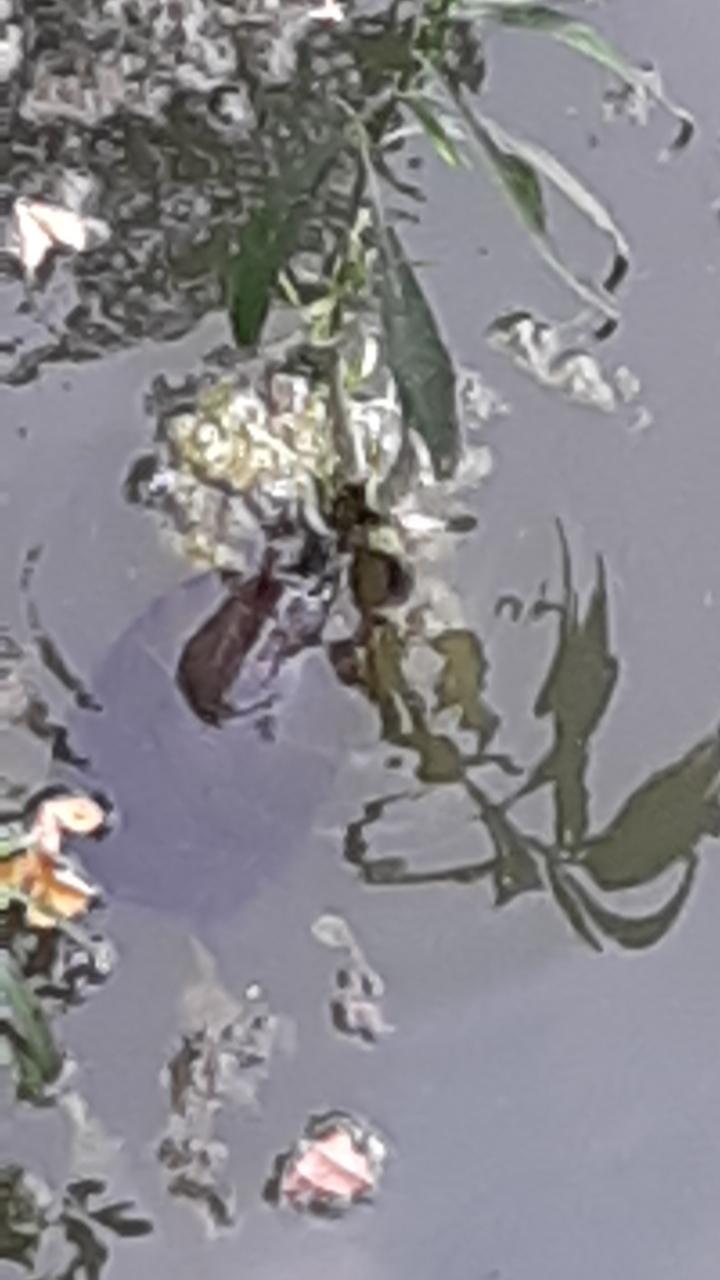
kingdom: Animalia
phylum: Chordata
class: Testudines
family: Emydidae
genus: Chrysemys
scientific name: Chrysemys picta
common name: Painted turtle
